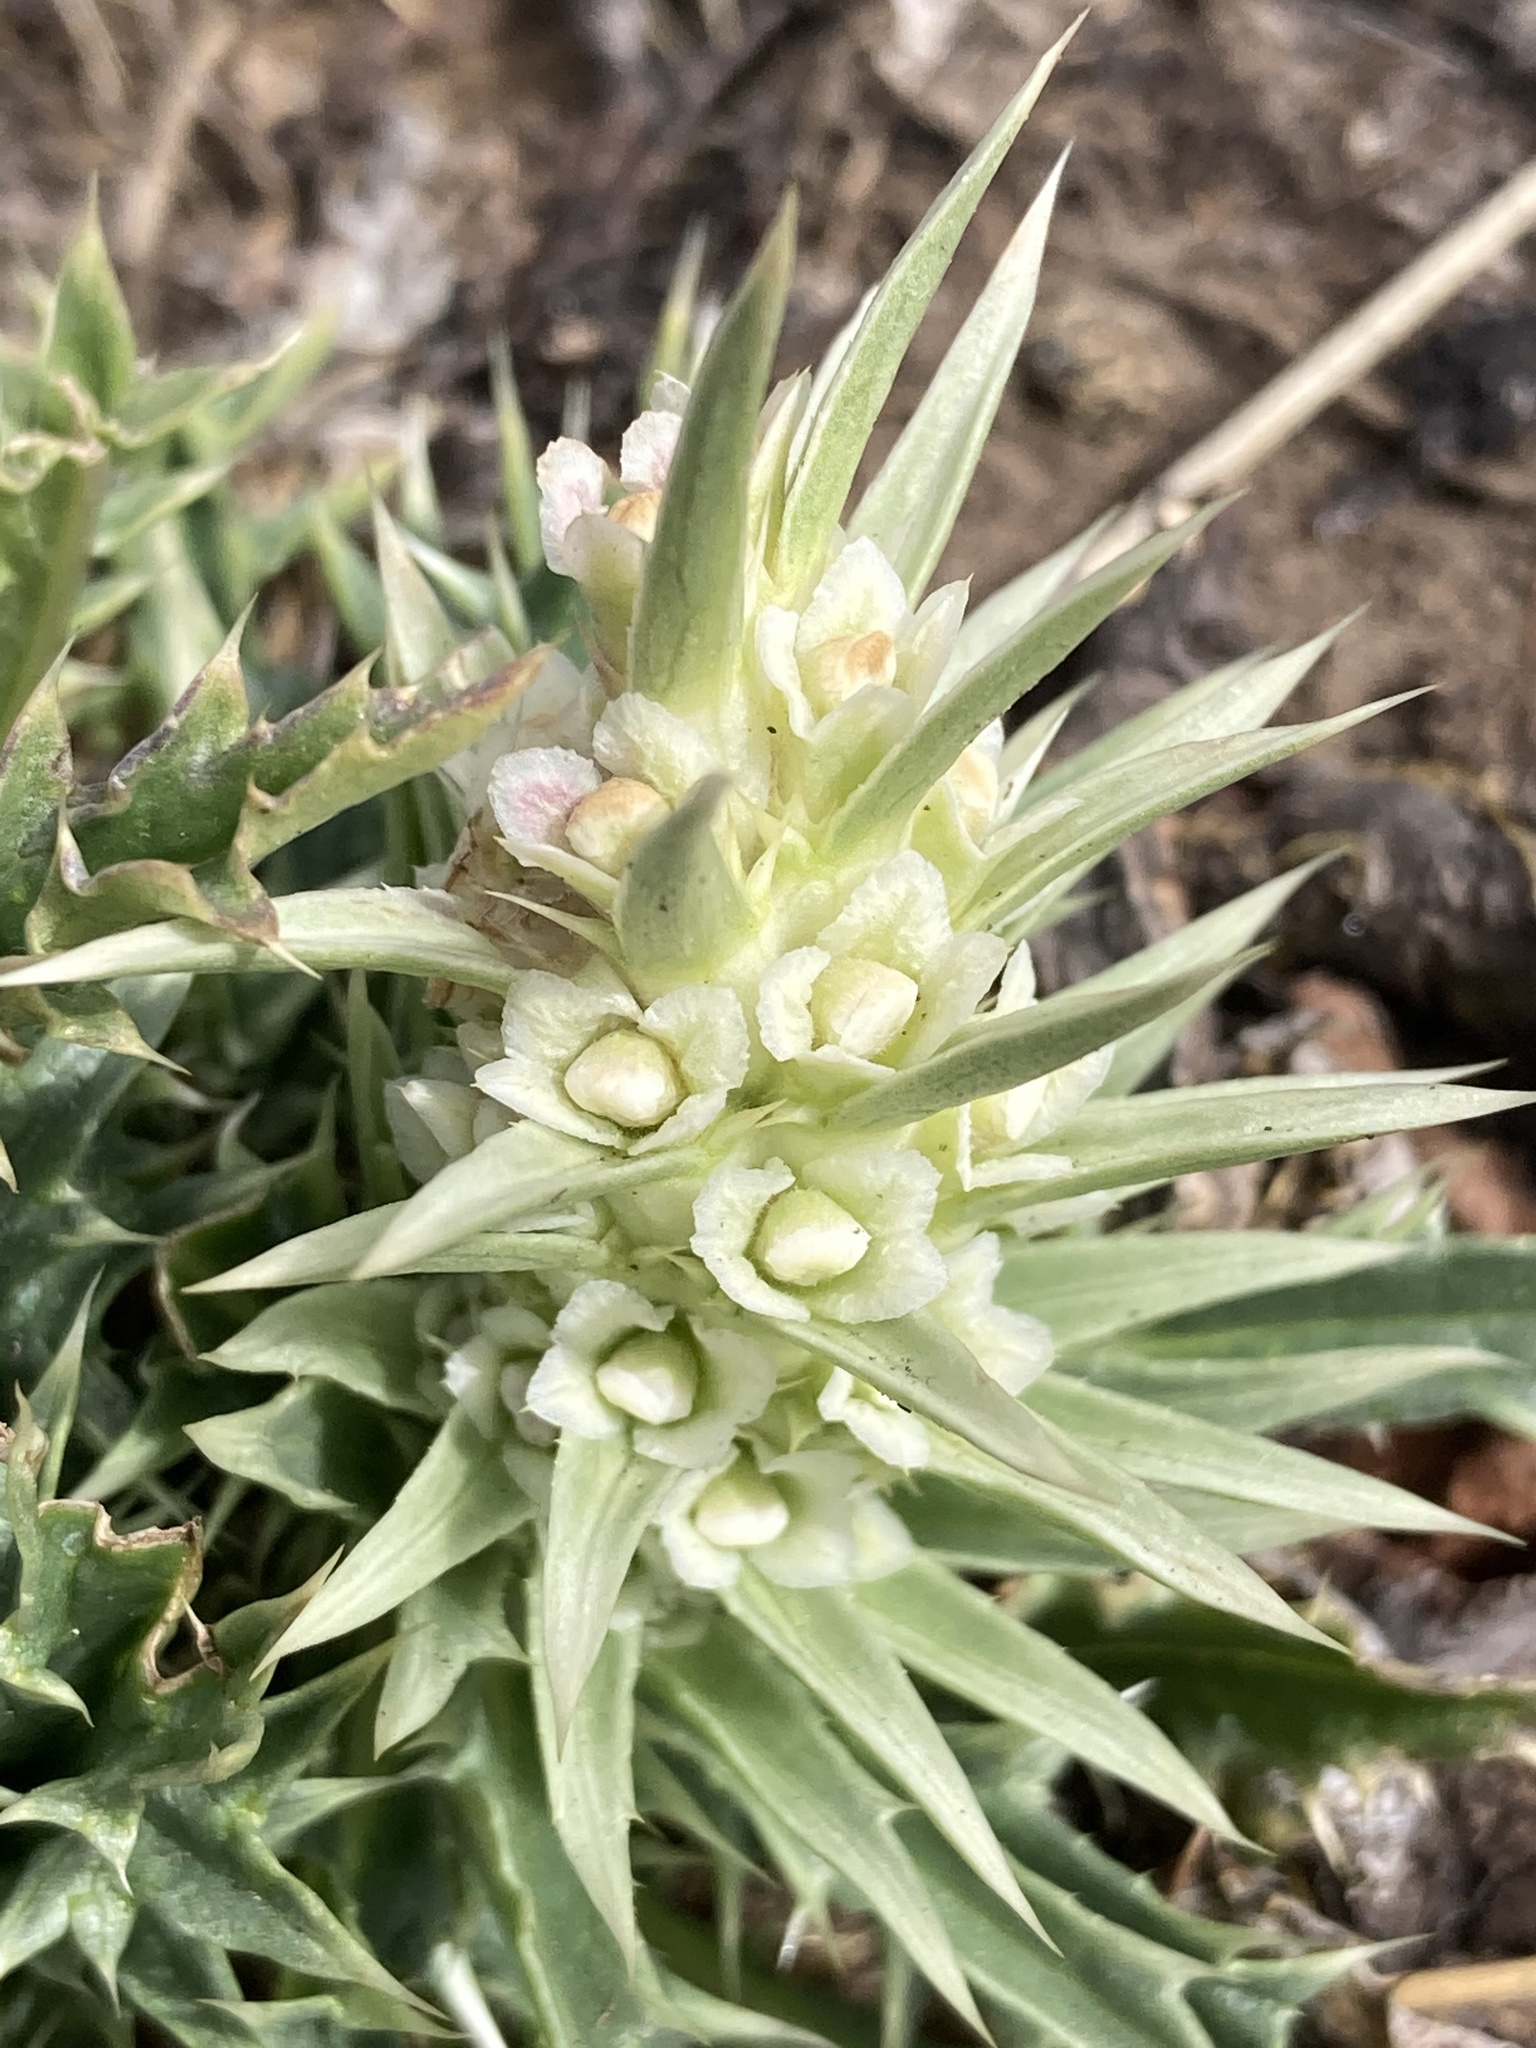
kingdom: Plantae
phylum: Tracheophyta
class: Magnoliopsida
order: Dipsacales
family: Caprifoliaceae
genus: Cryptothladia
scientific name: Cryptothladia polyphylla
